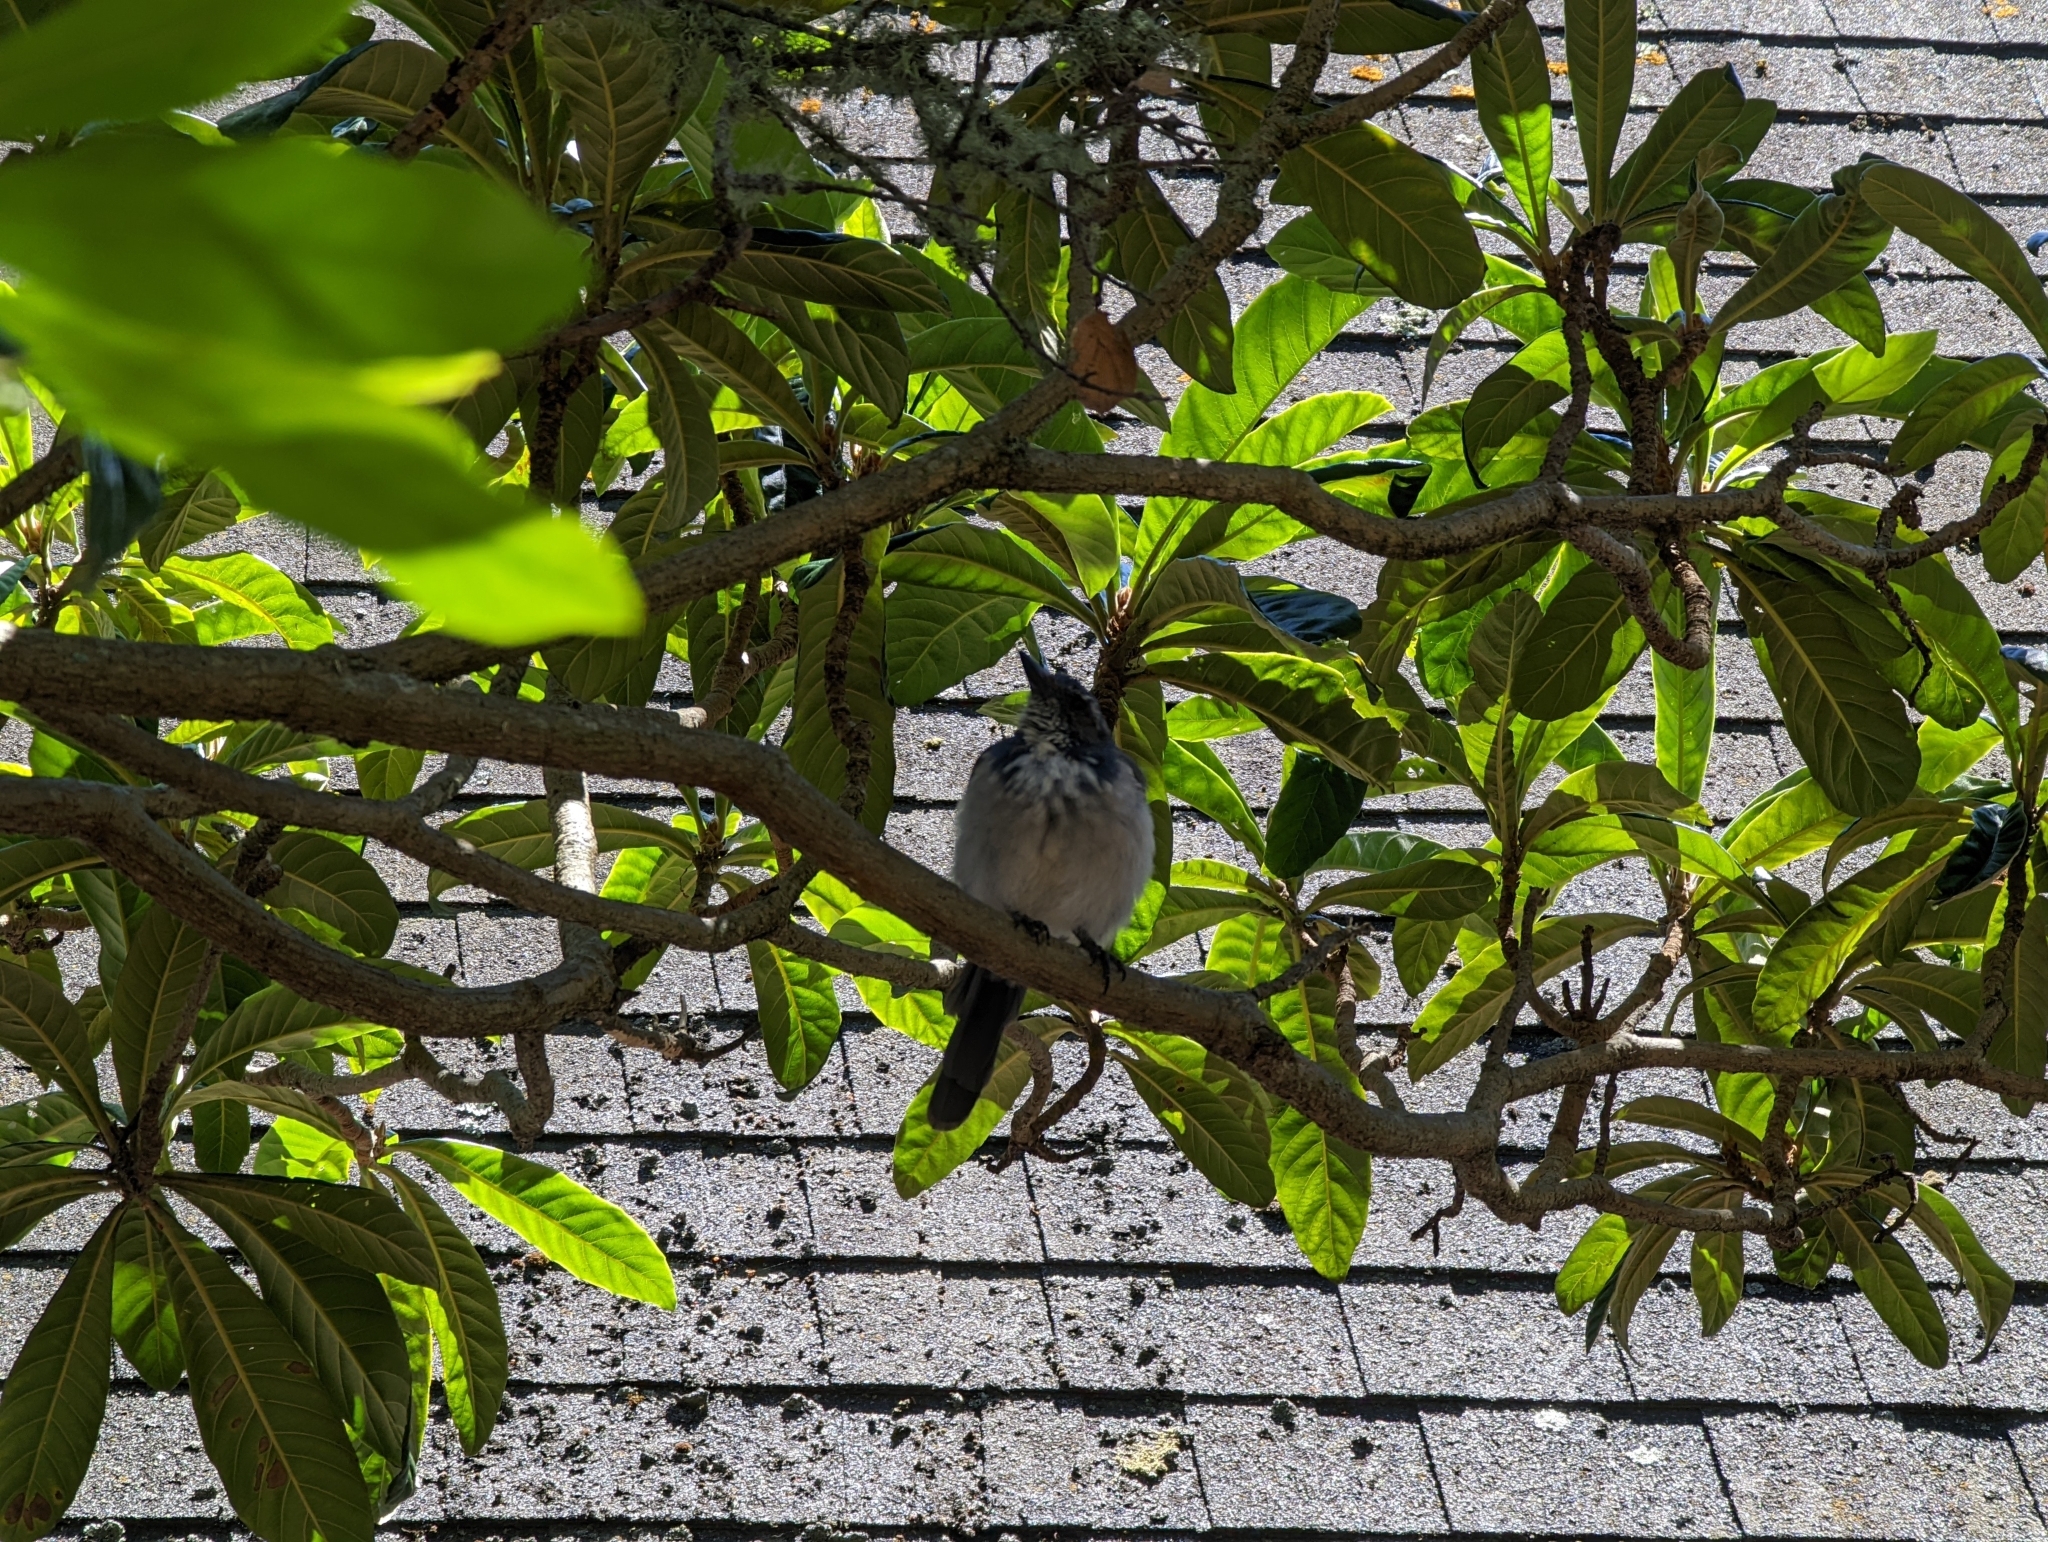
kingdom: Animalia
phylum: Chordata
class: Aves
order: Passeriformes
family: Corvidae
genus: Aphelocoma
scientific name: Aphelocoma californica
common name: California scrub-jay
